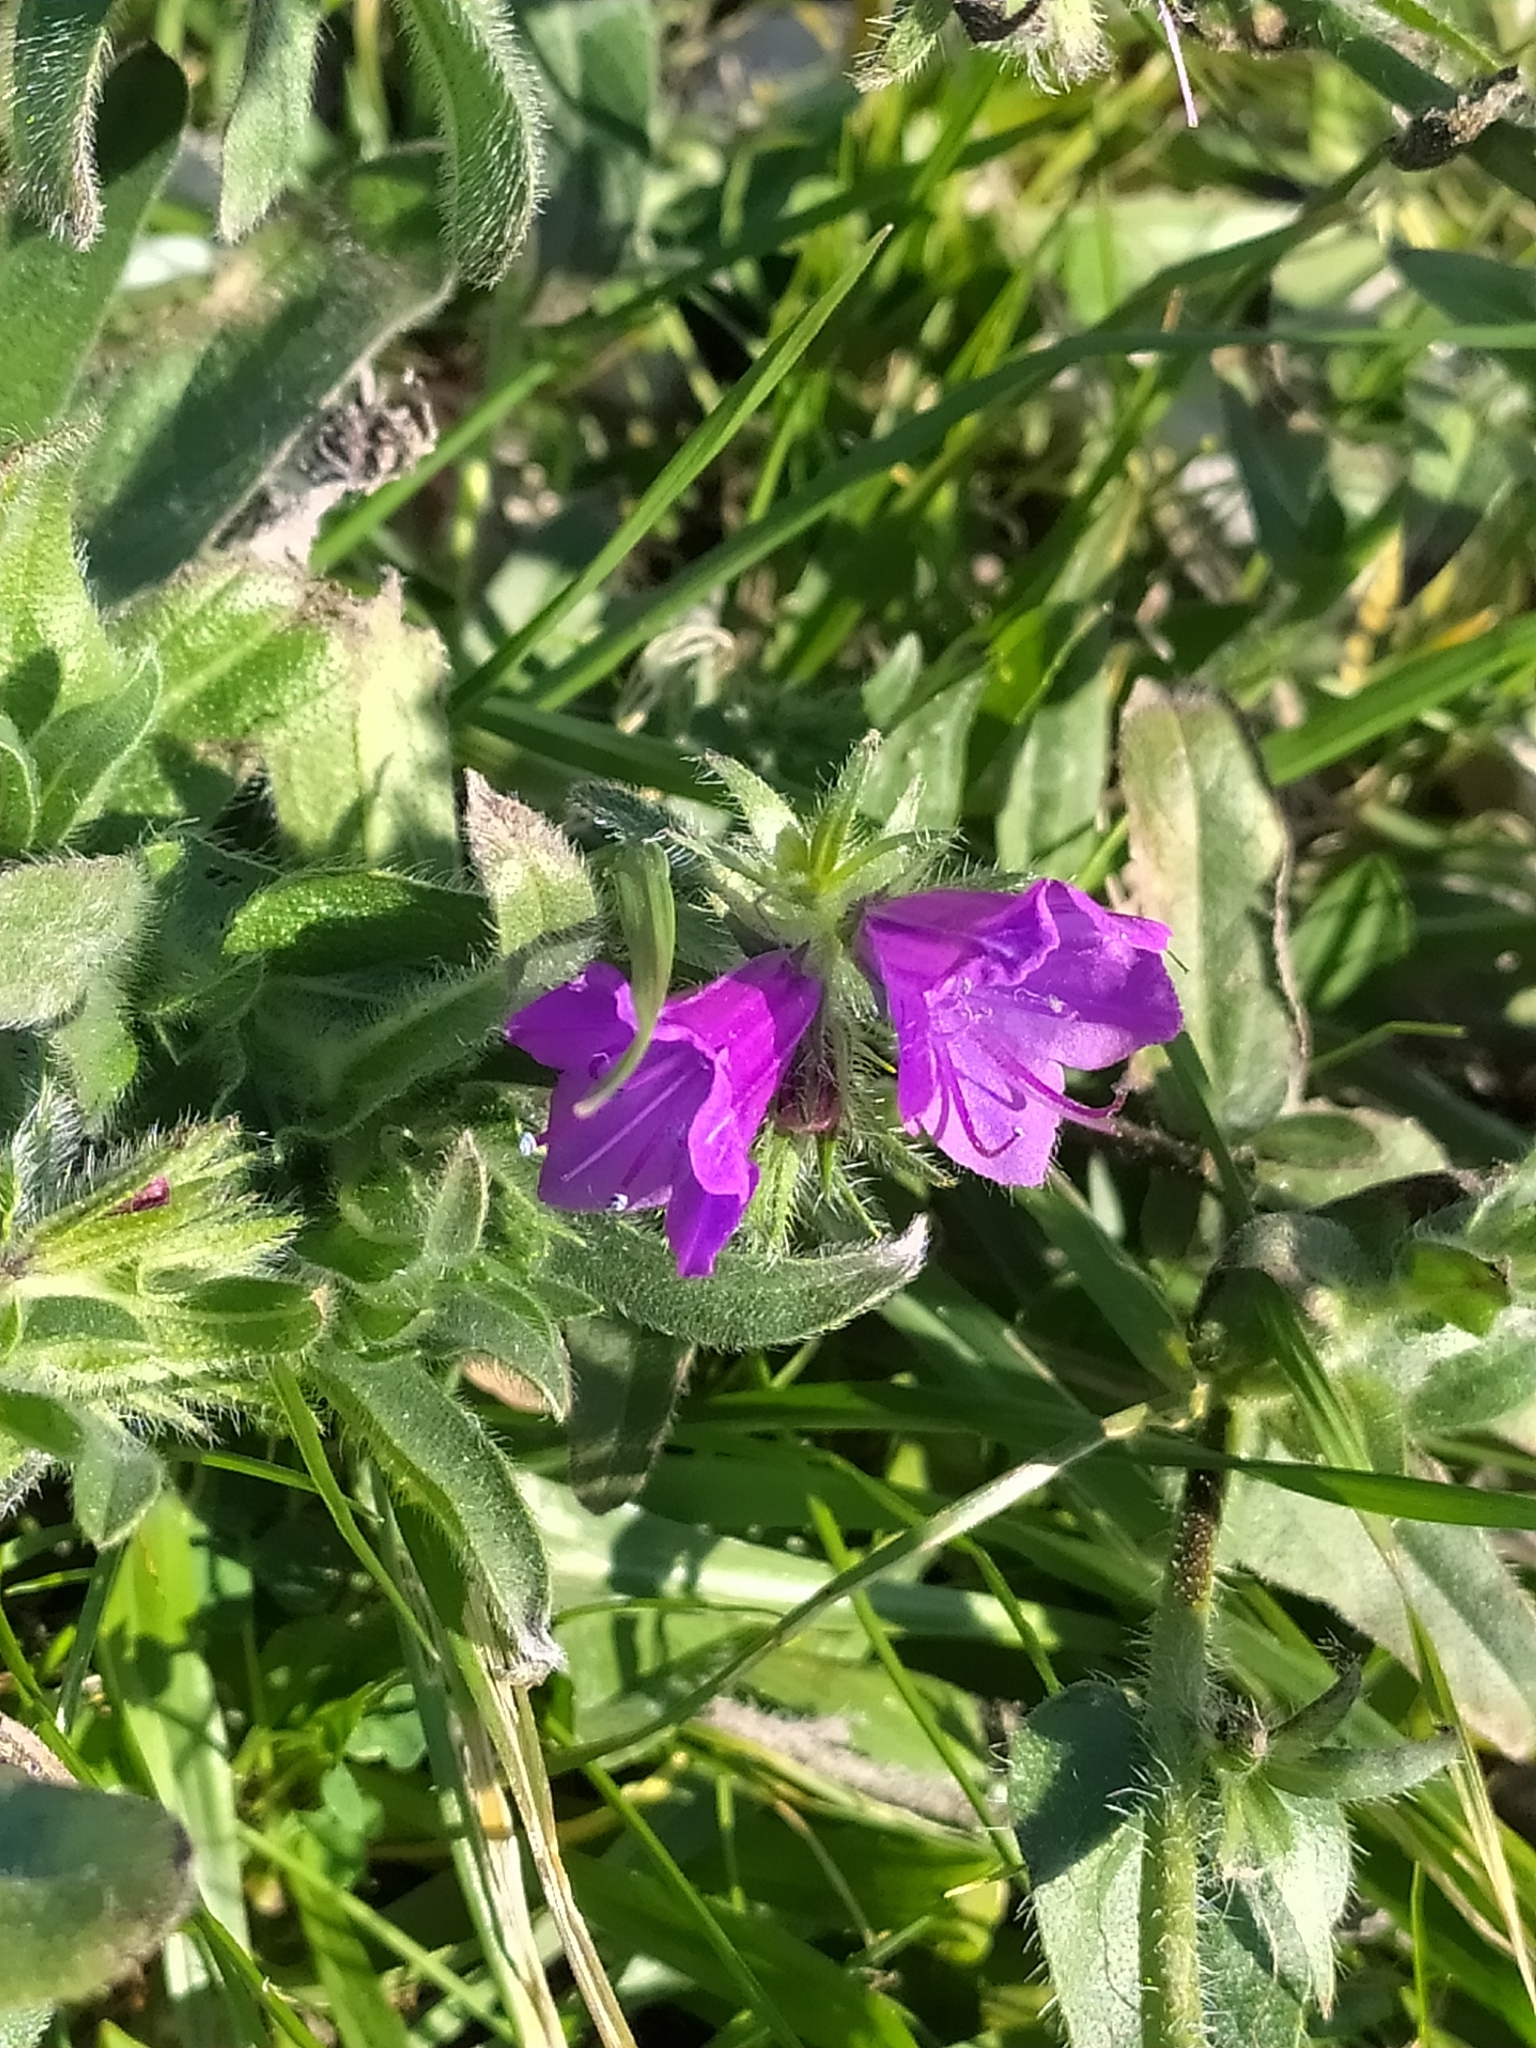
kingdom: Plantae
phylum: Tracheophyta
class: Magnoliopsida
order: Boraginales
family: Boraginaceae
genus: Echium
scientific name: Echium plantagineum
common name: Purple viper's-bugloss
